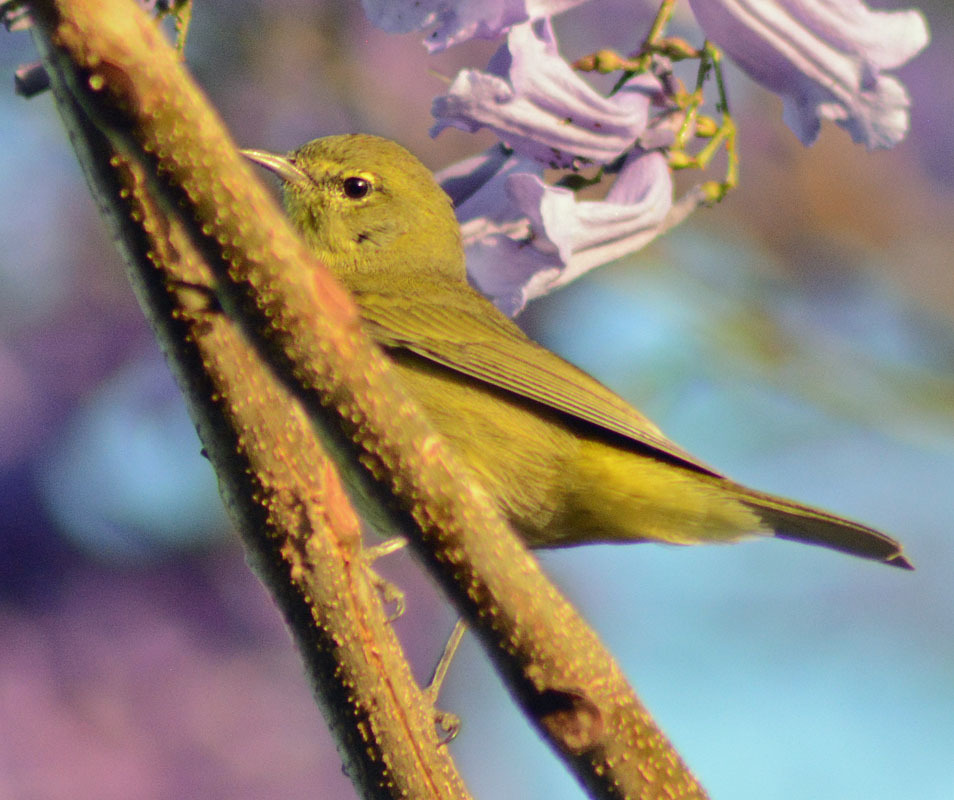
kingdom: Animalia
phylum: Chordata
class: Aves
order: Passeriformes
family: Parulidae
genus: Leiothlypis
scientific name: Leiothlypis celata
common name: Orange-crowned warbler
